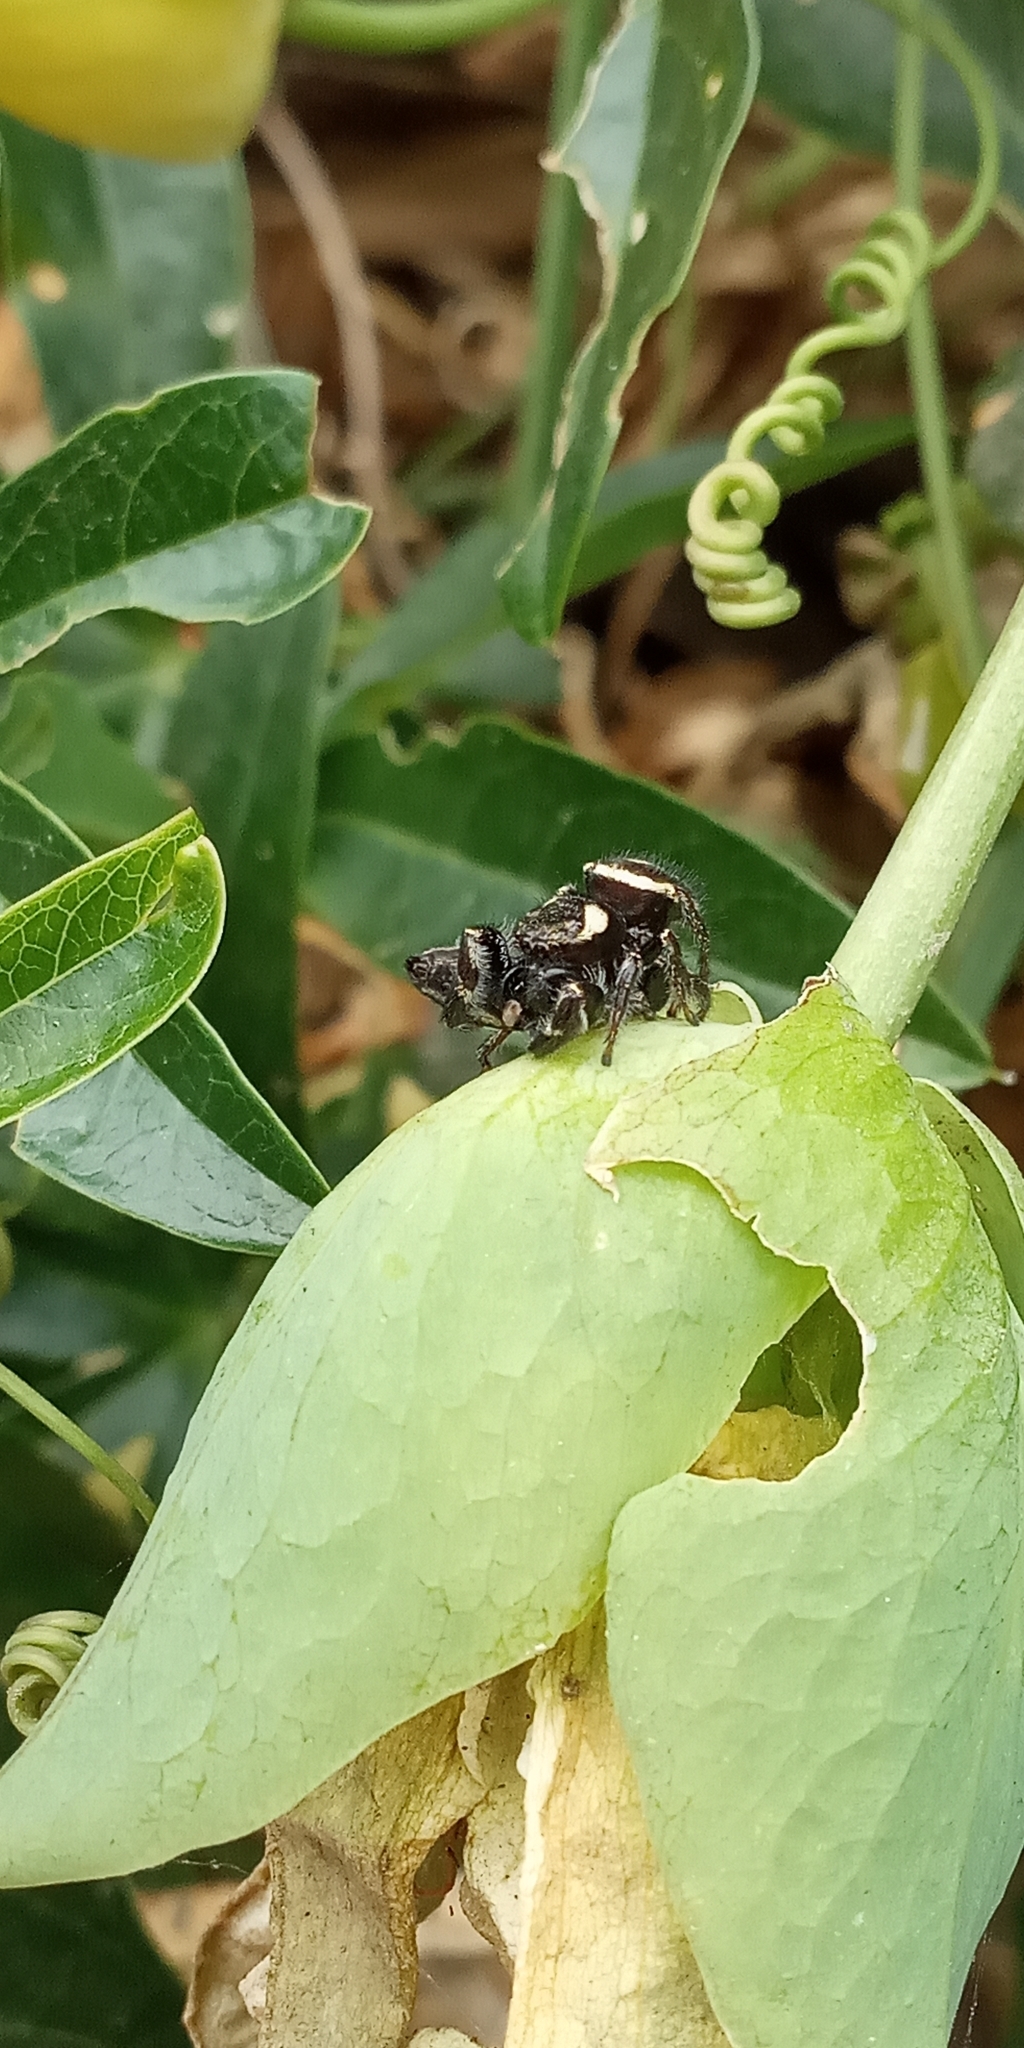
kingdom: Animalia
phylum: Arthropoda
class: Arachnida
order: Araneae
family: Salticidae
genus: Dendryphantes
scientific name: Dendryphantes mordax
